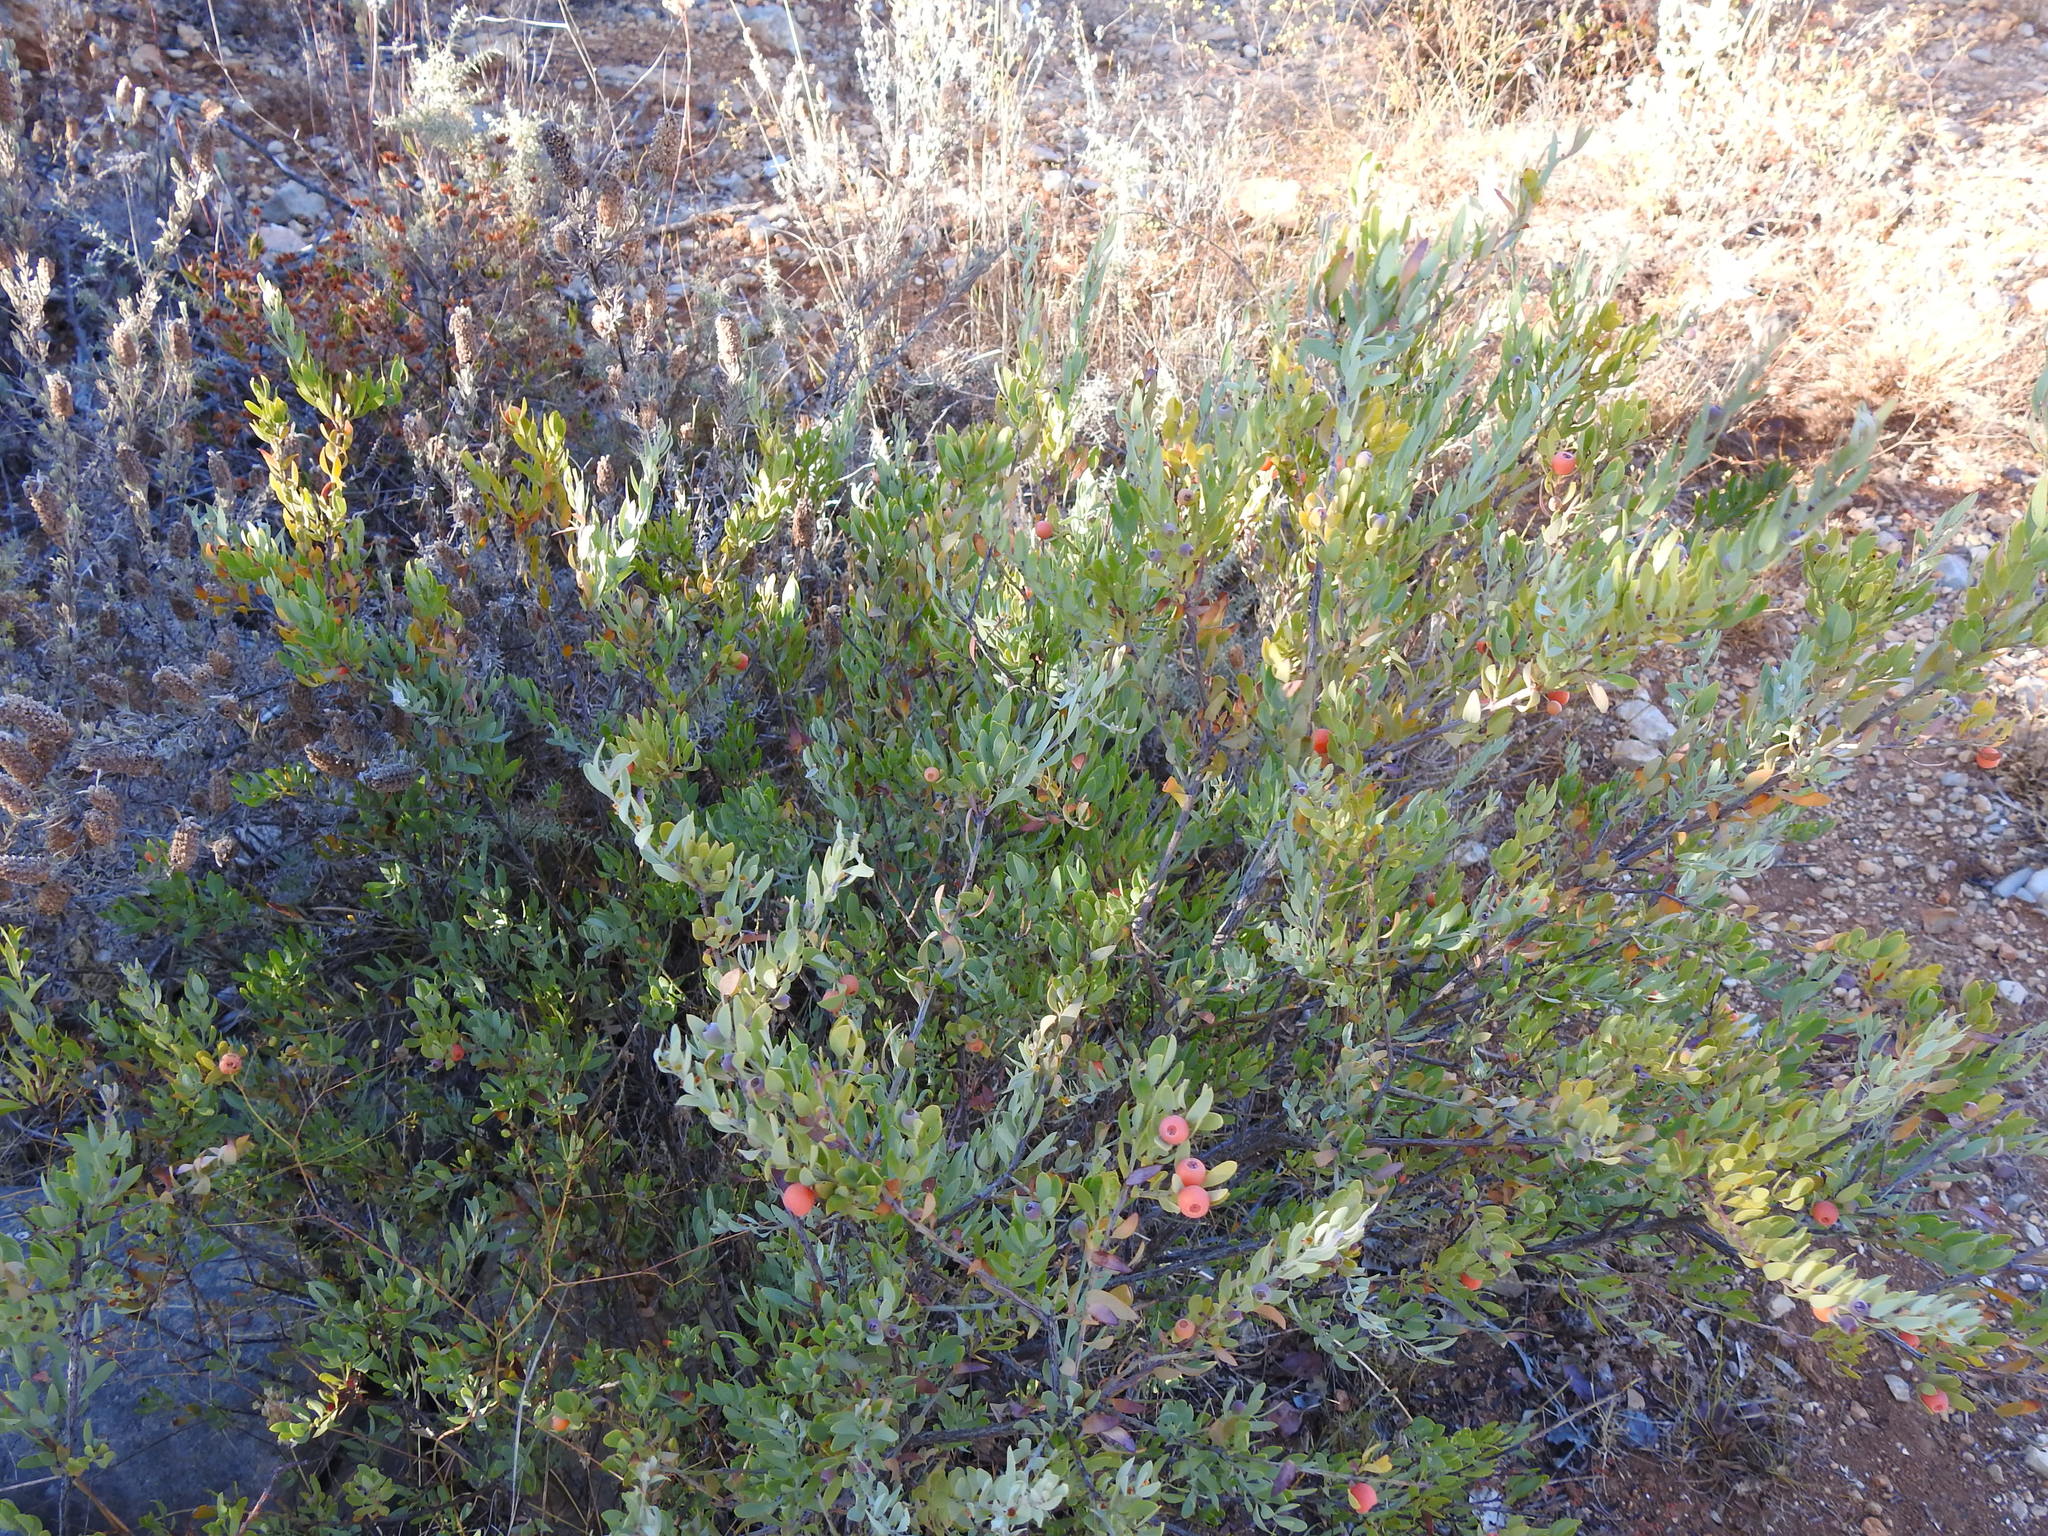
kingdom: Plantae
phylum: Tracheophyta
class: Magnoliopsida
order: Santalales
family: Santalaceae
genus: Osyris
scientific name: Osyris lanceolata
